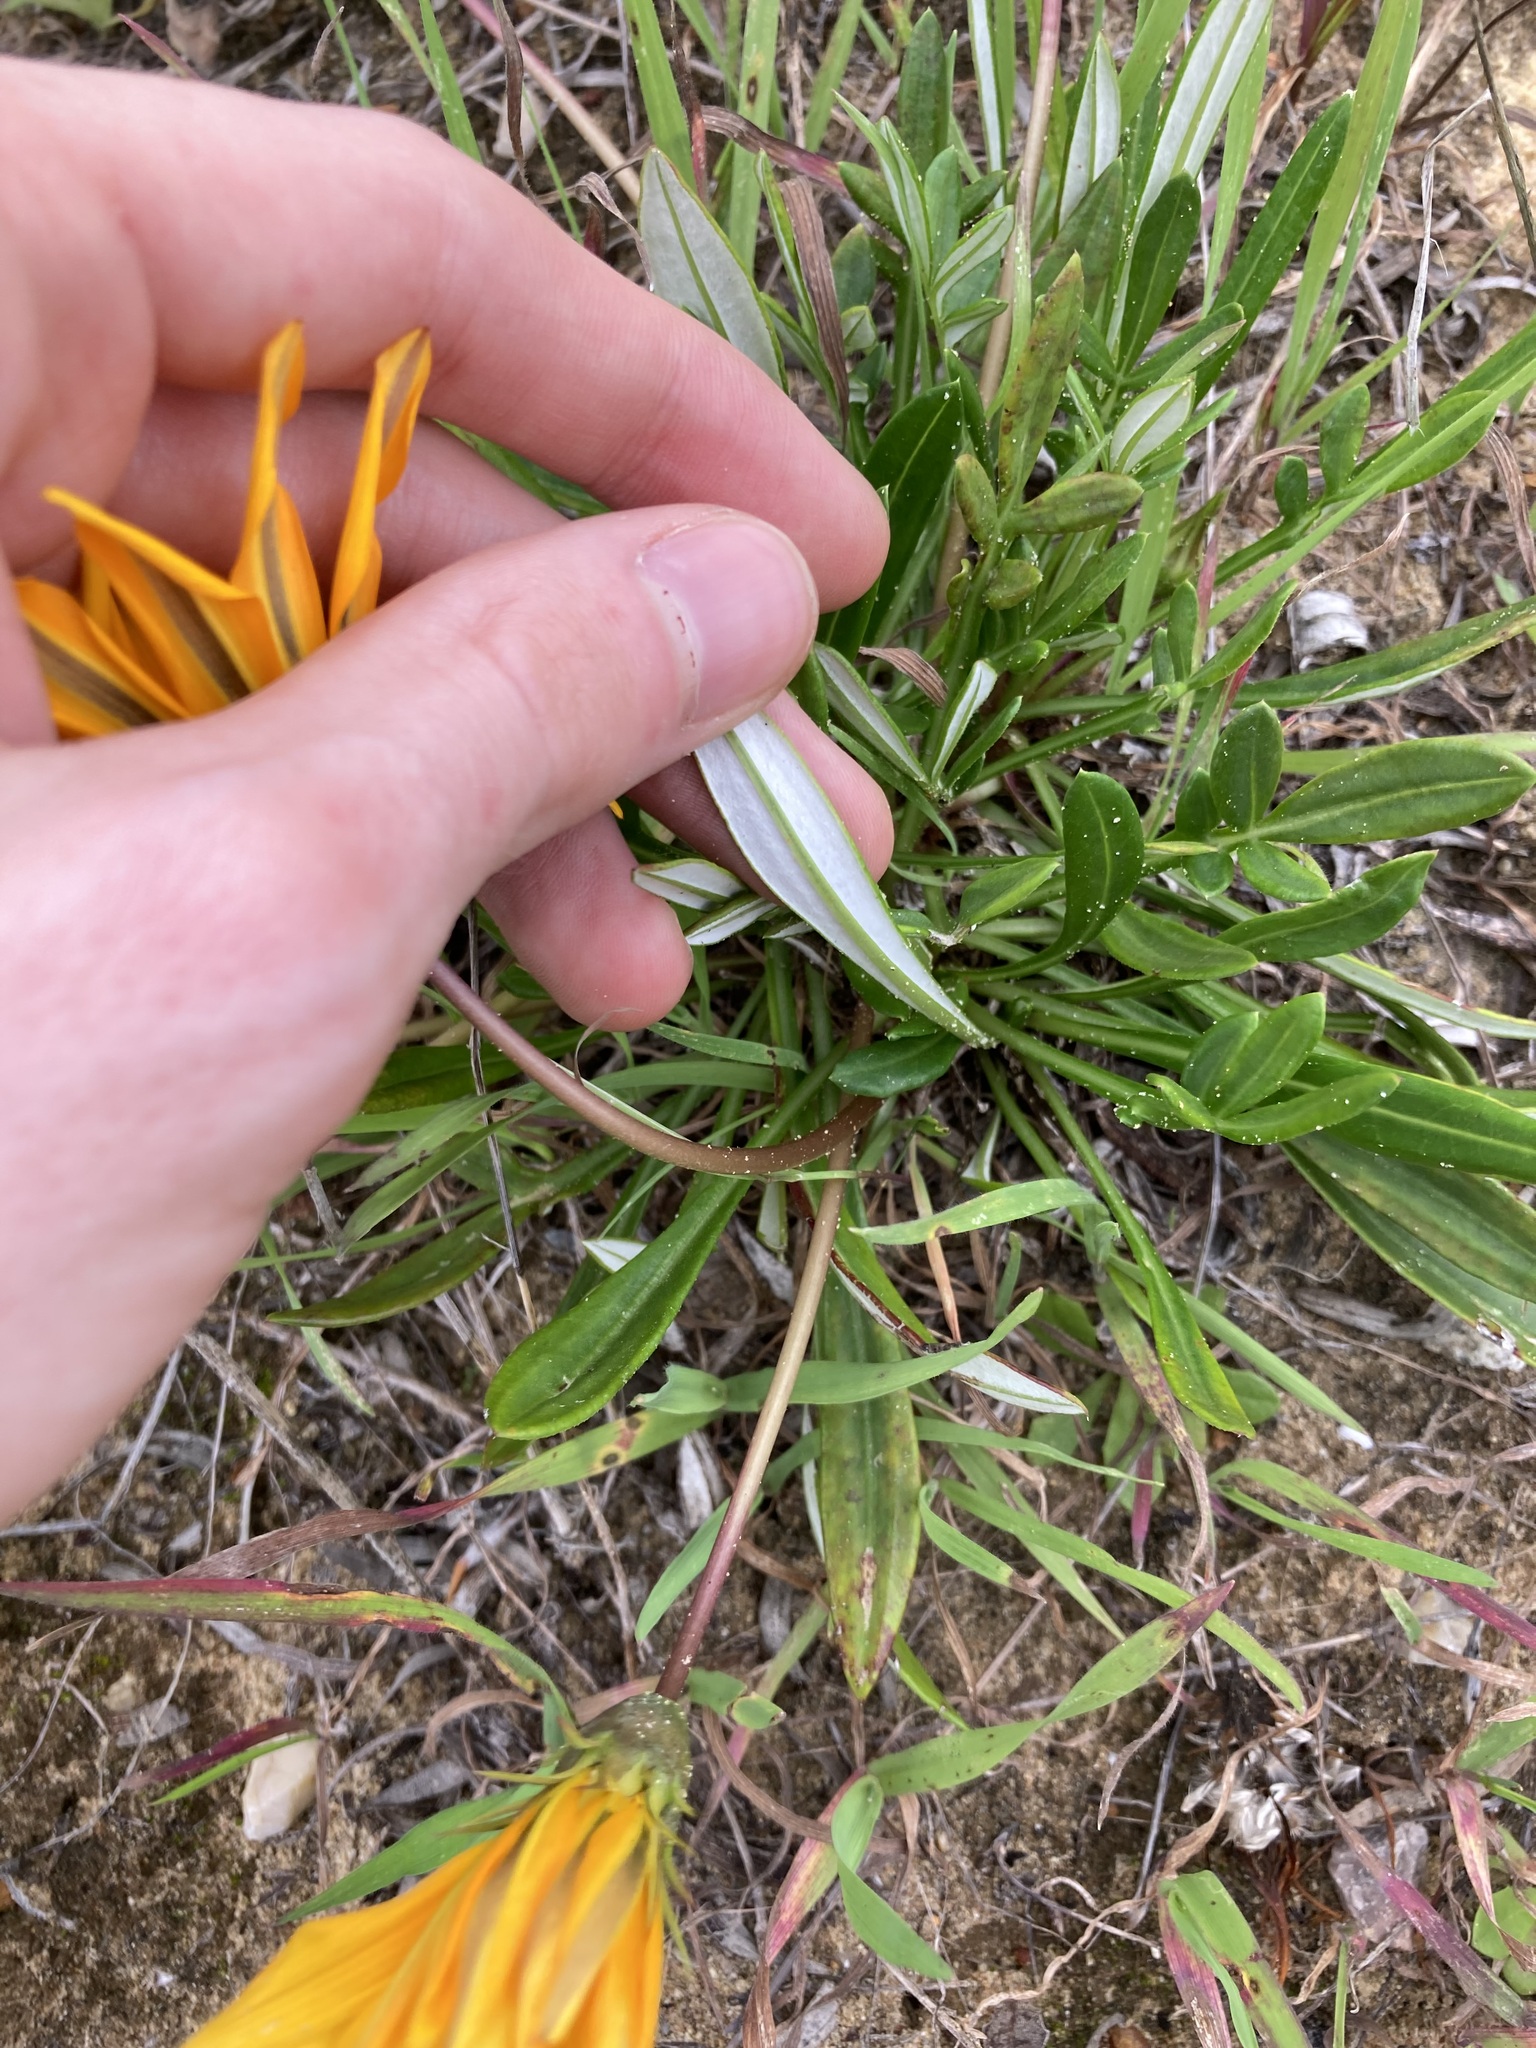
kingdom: Plantae
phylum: Tracheophyta
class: Magnoliopsida
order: Asterales
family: Asteraceae
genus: Gazania
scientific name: Gazania splendens
